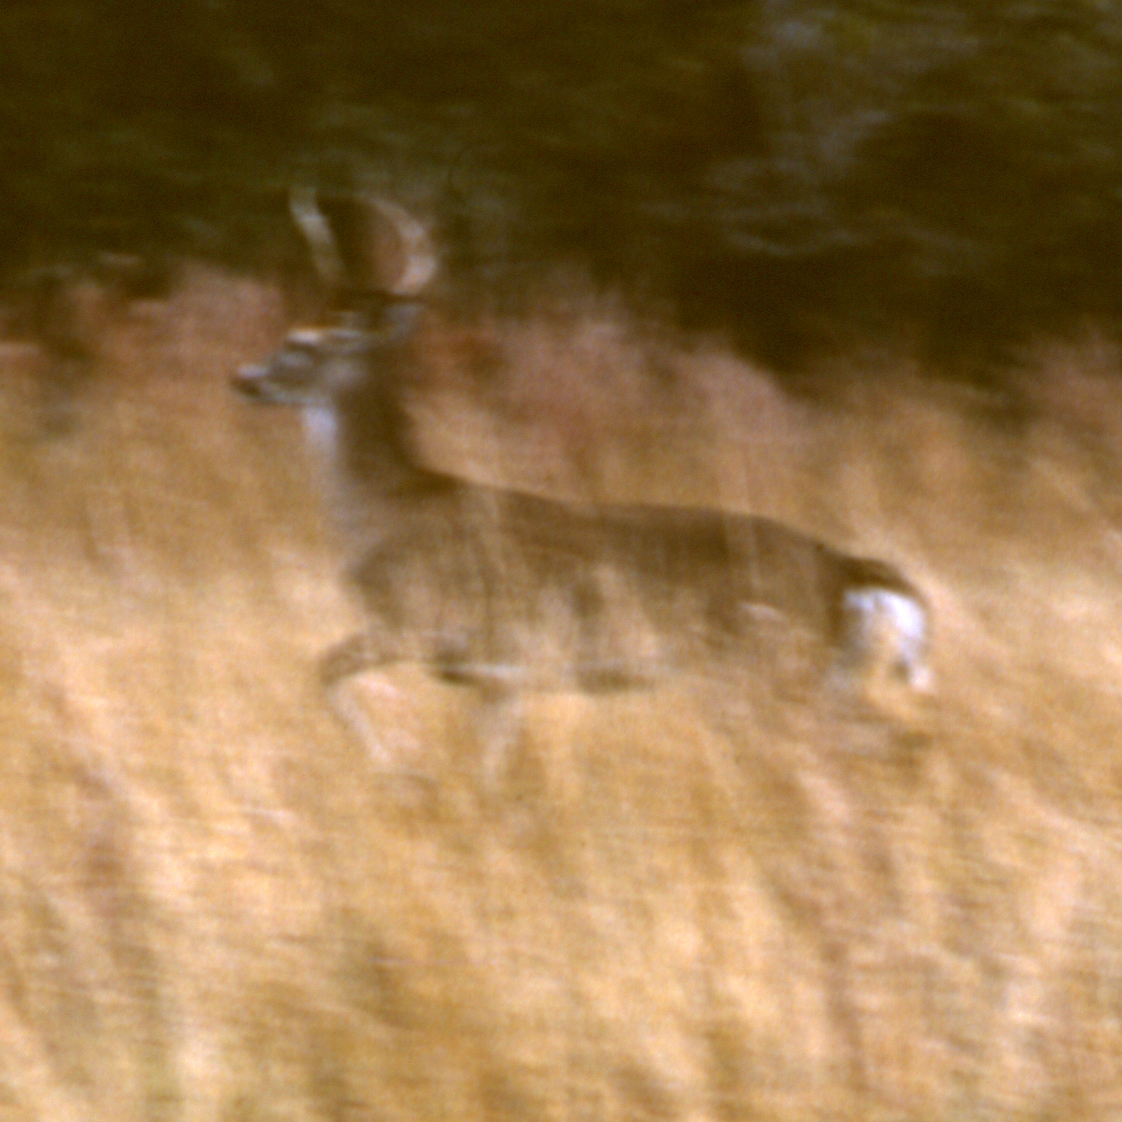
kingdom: Animalia
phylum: Chordata
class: Mammalia
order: Artiodactyla
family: Cervidae
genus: Odocoileus
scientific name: Odocoileus virginianus
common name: White-tailed deer
